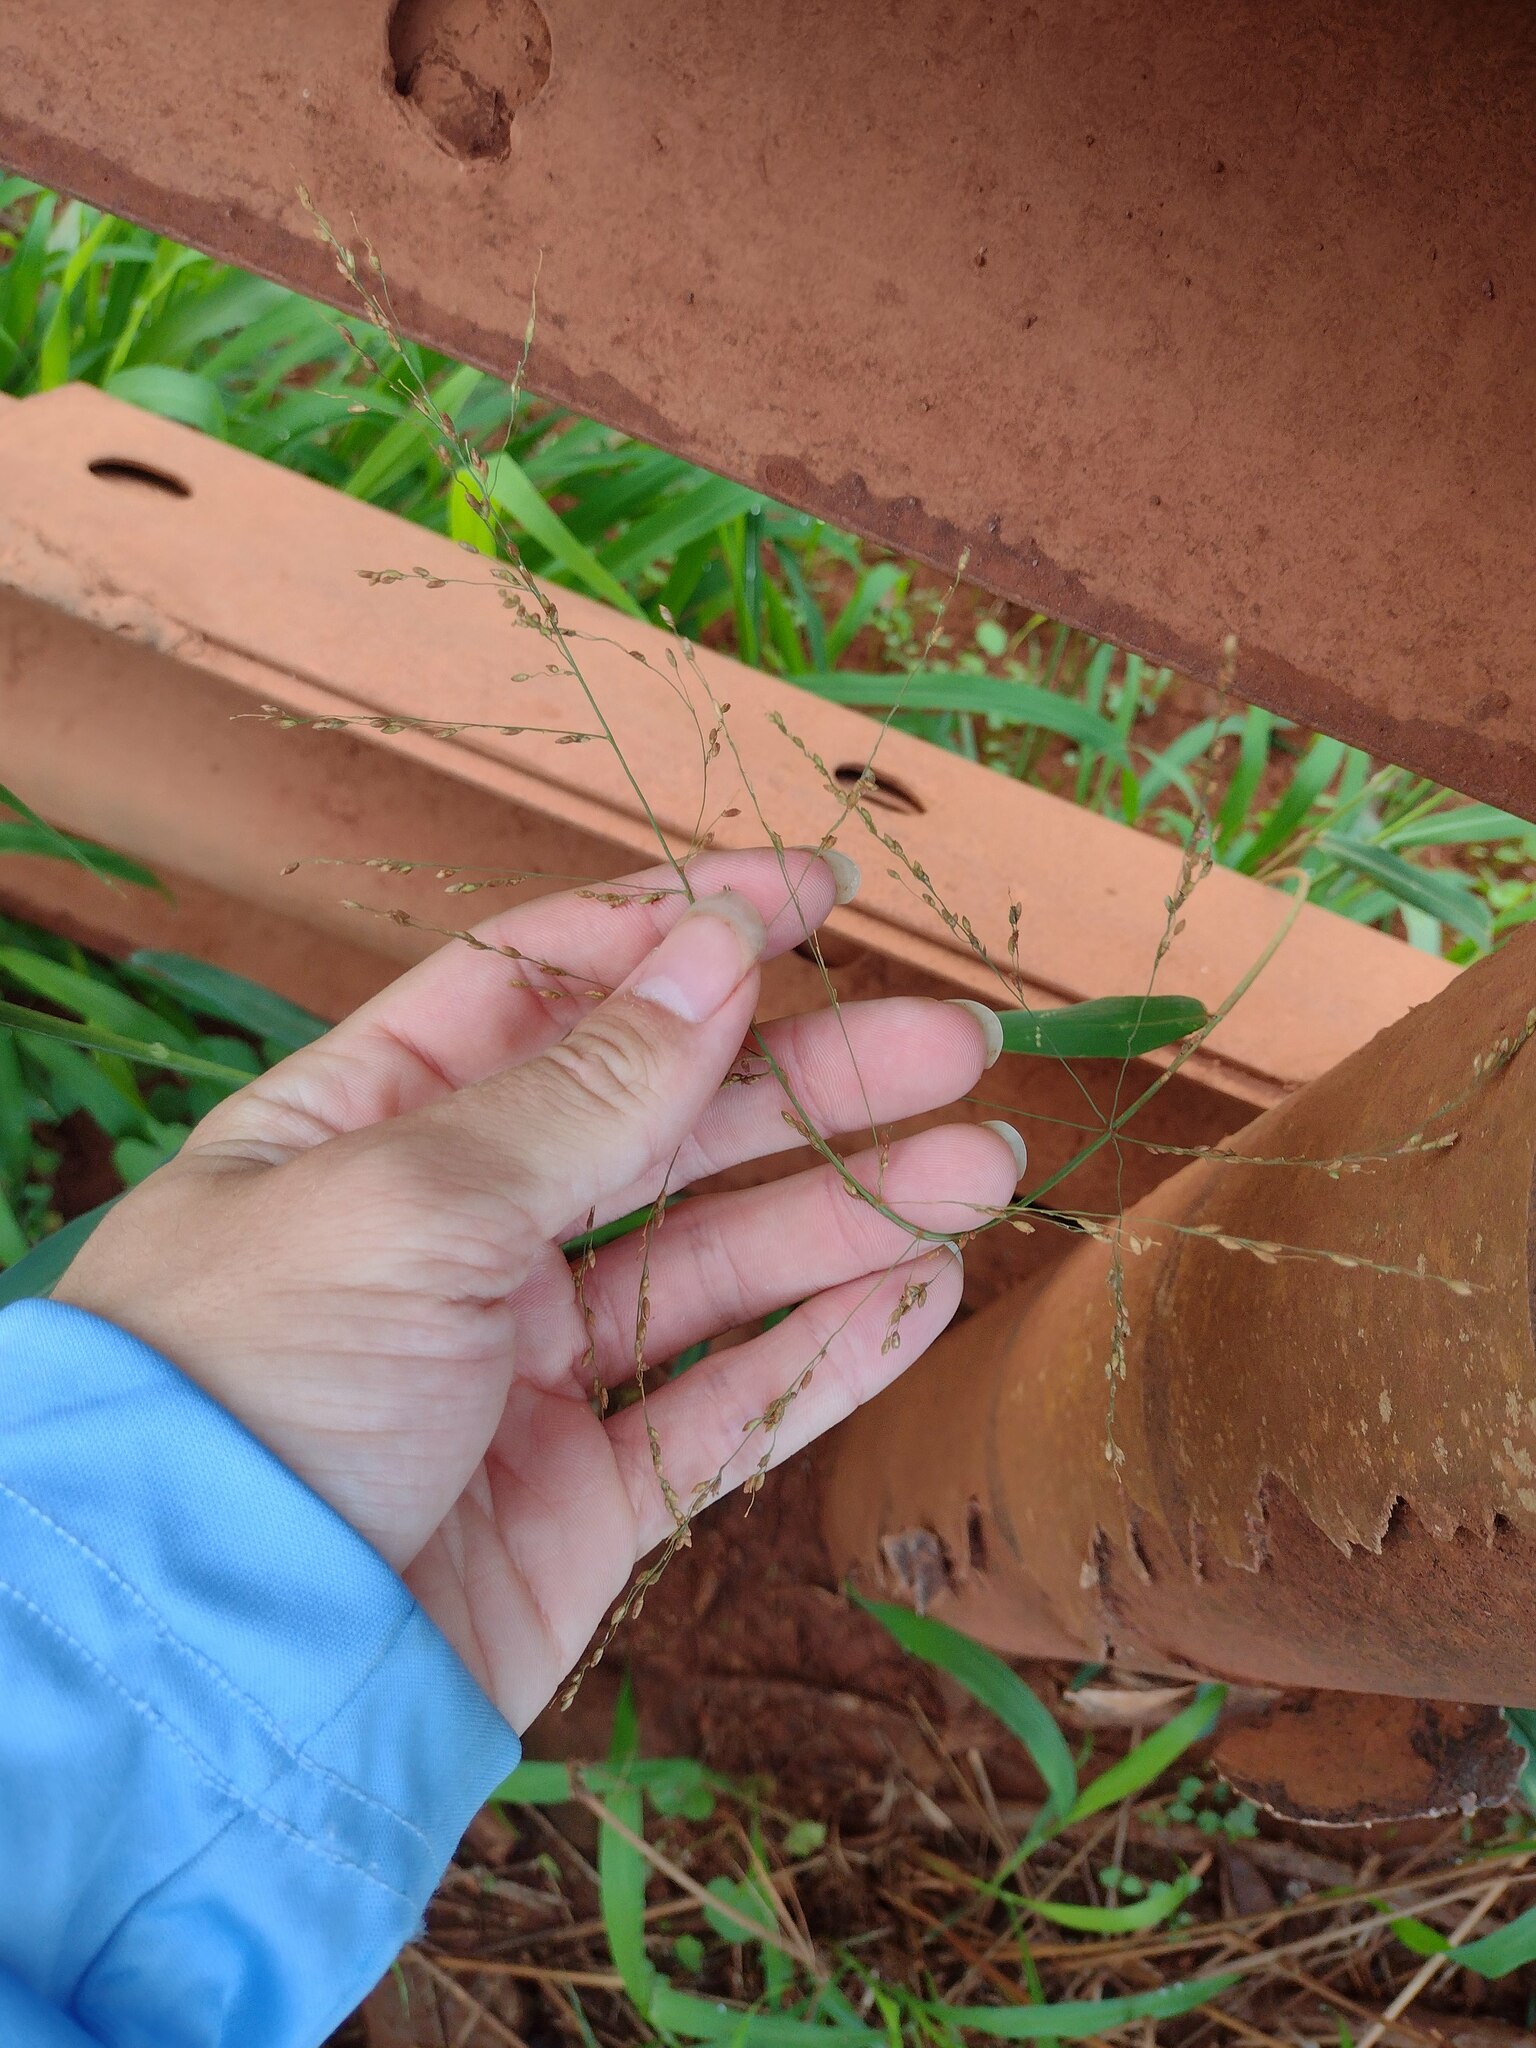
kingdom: Plantae
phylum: Tracheophyta
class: Liliopsida
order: Poales
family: Poaceae
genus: Megathyrsus
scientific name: Megathyrsus maximus
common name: Guineagrass
